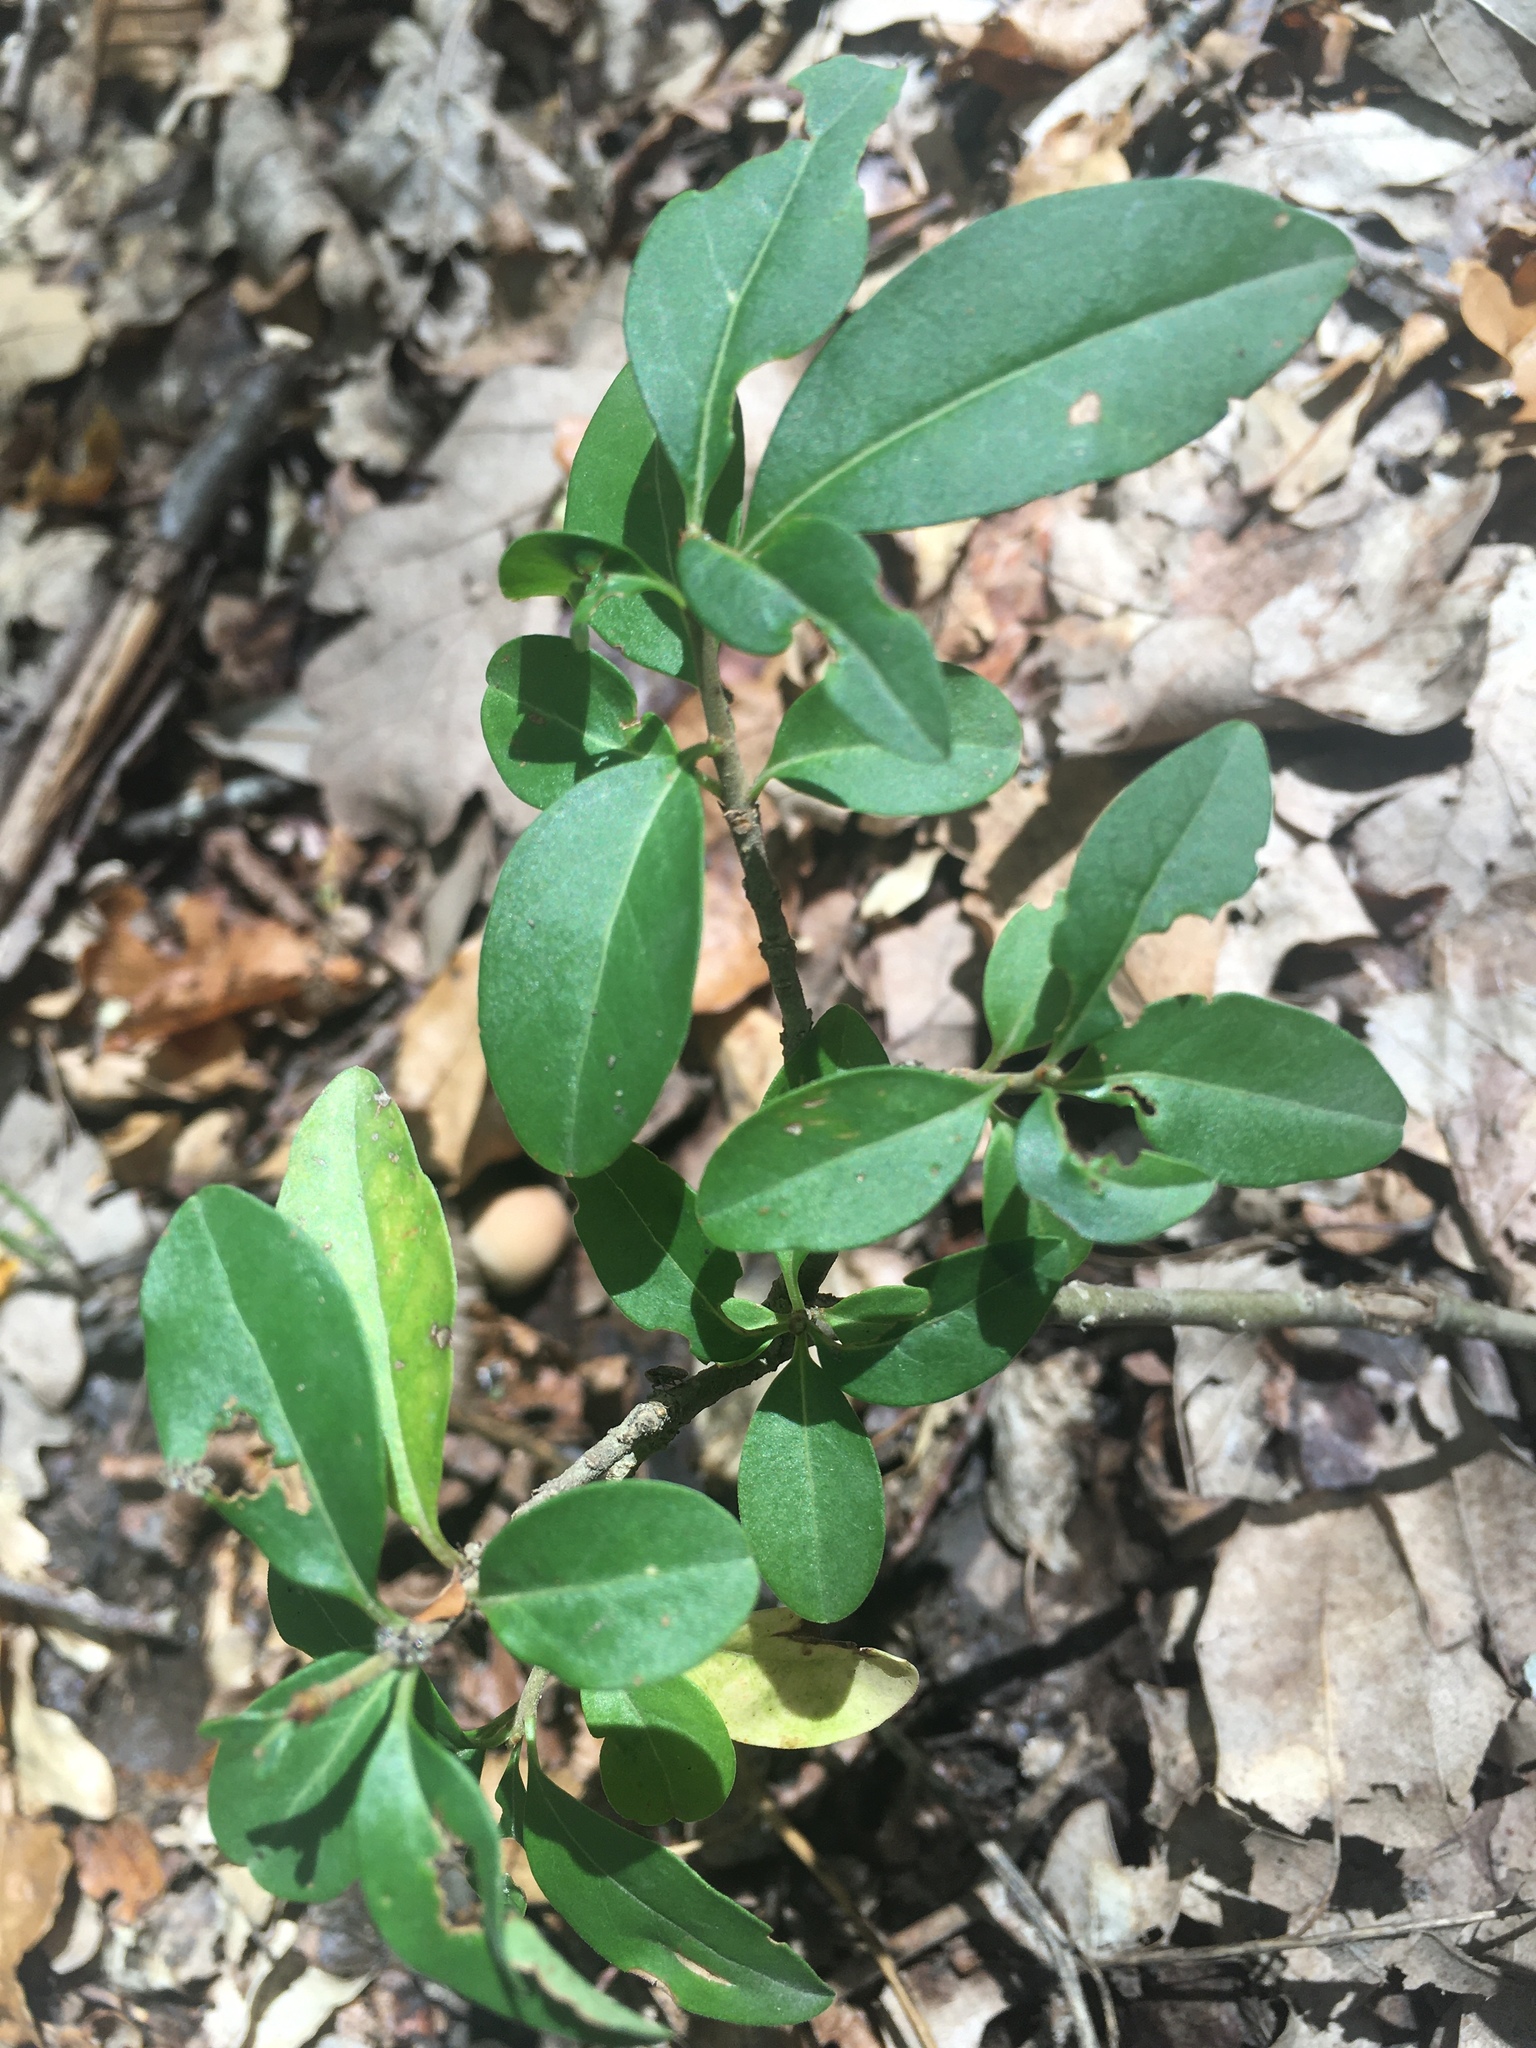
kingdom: Plantae
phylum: Tracheophyta
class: Magnoliopsida
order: Lamiales
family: Oleaceae
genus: Ligustrum
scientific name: Ligustrum vulgare
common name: Wild privet
